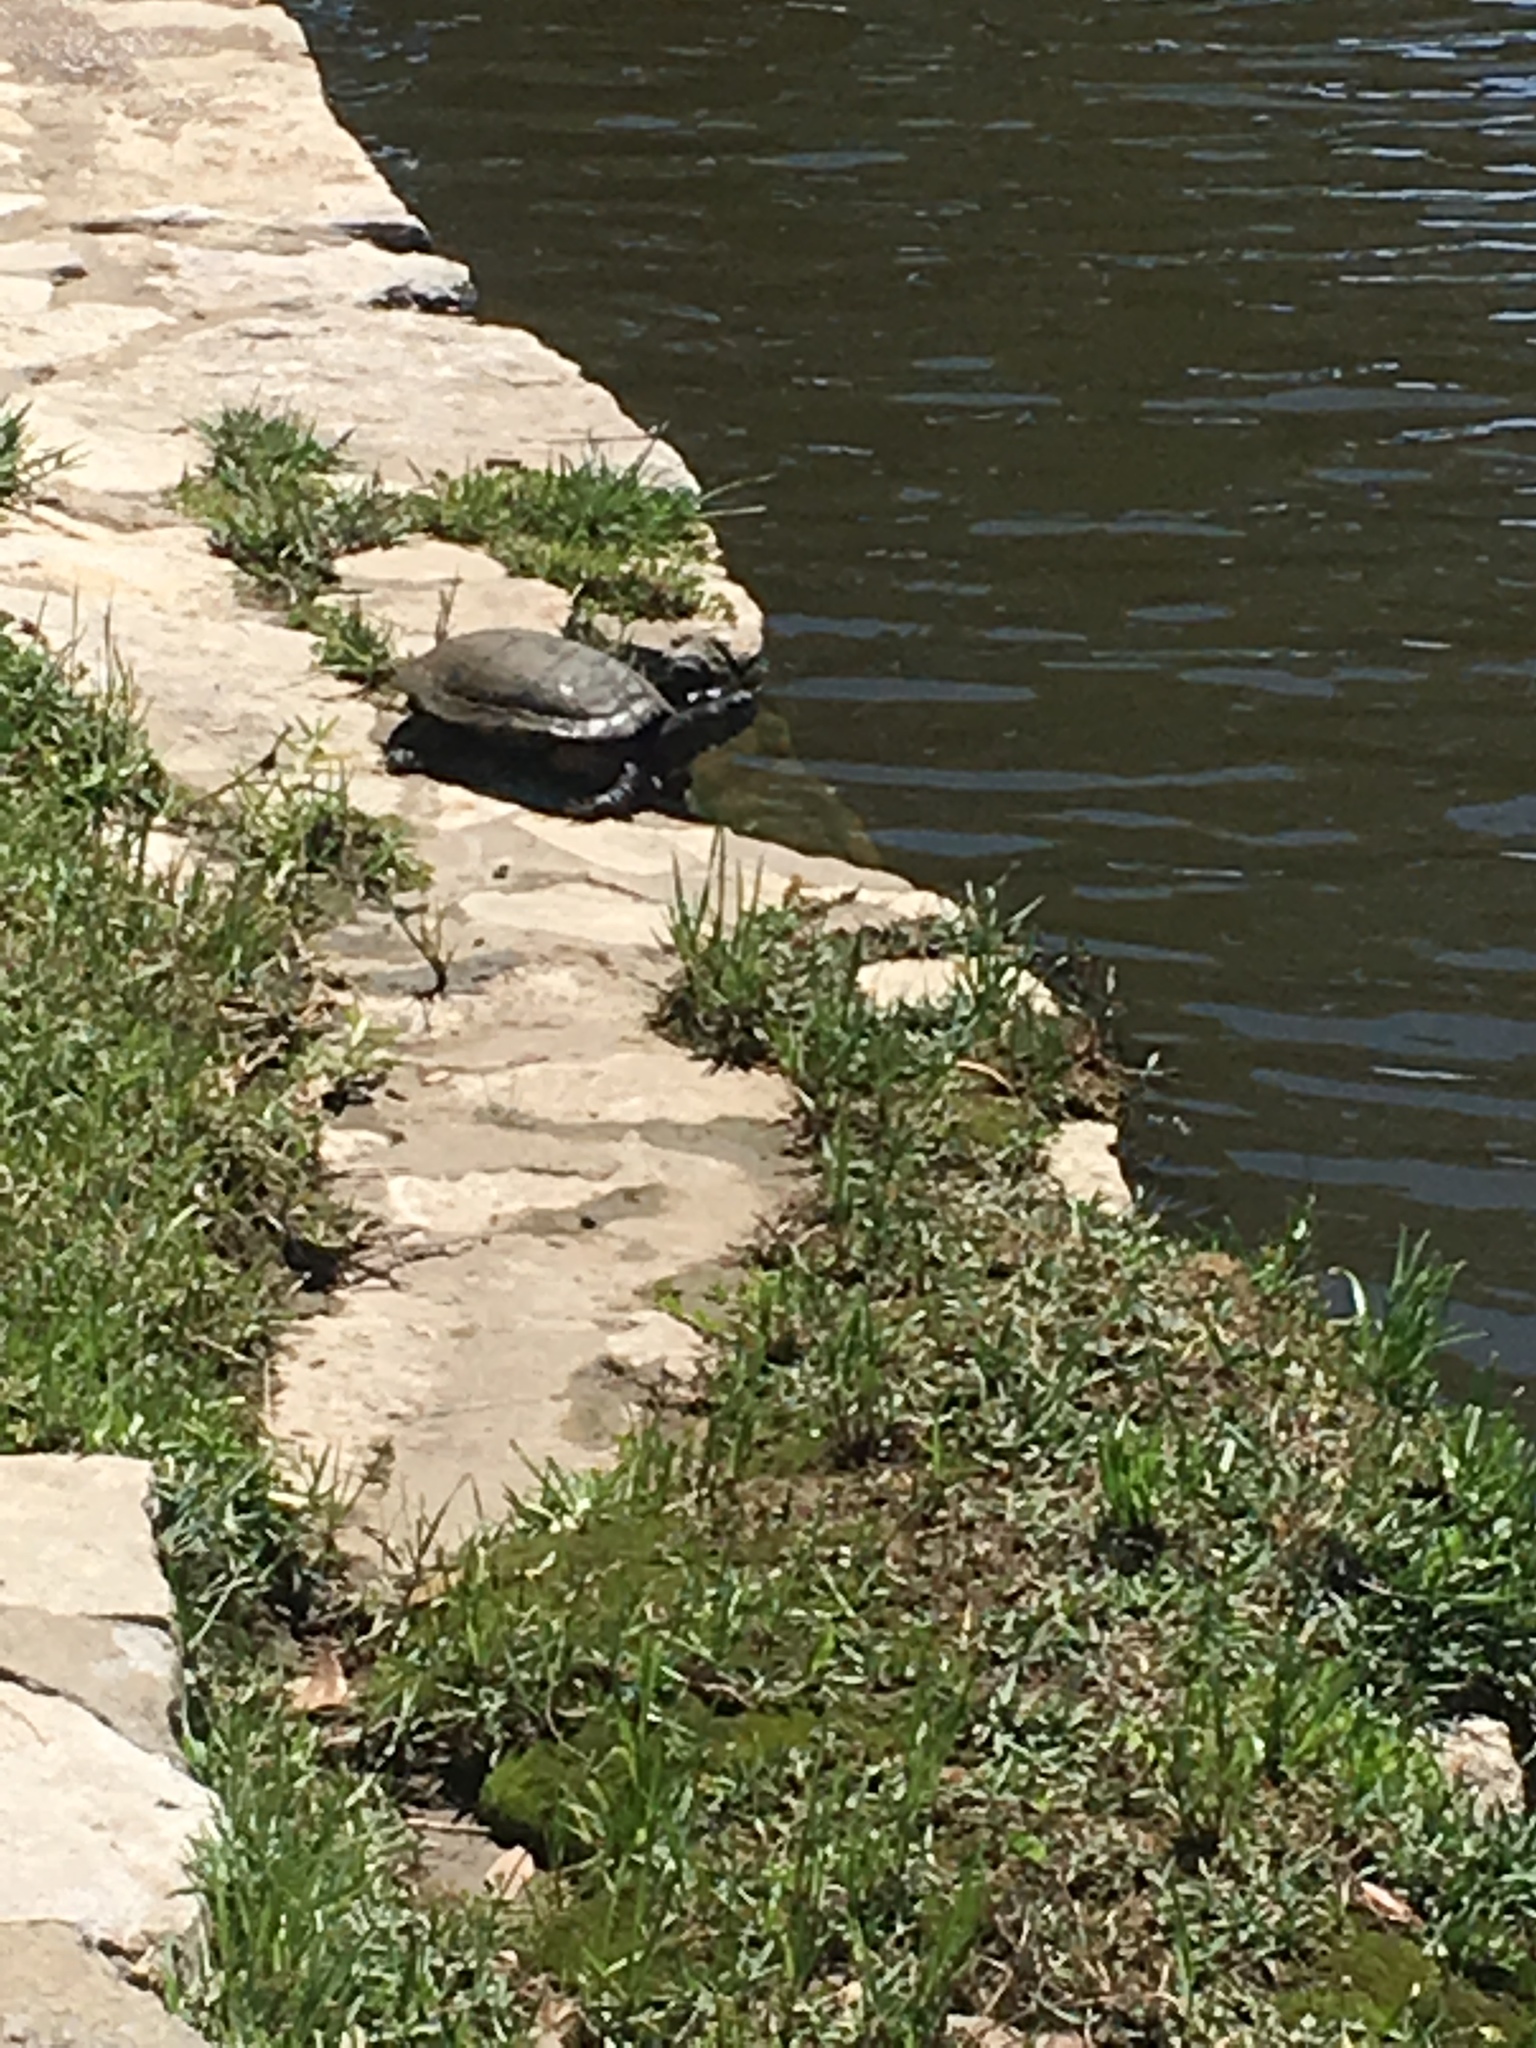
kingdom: Animalia
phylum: Chordata
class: Testudines
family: Emydidae
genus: Trachemys
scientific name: Trachemys scripta
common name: Slider
